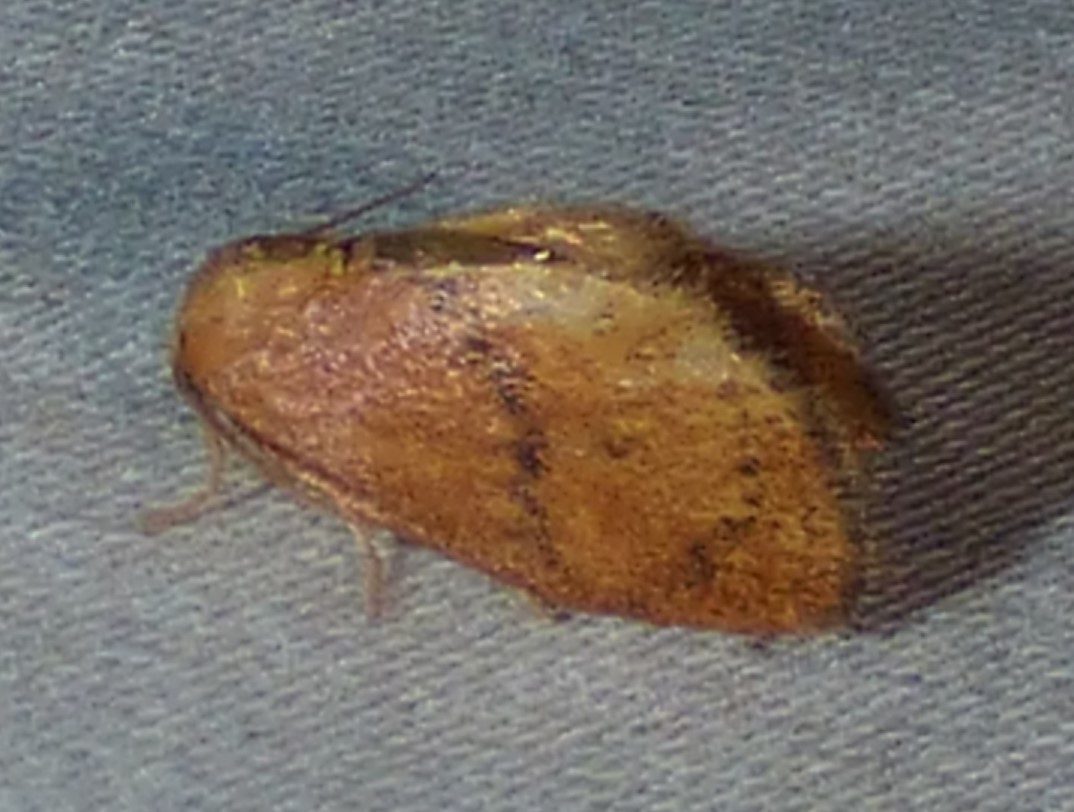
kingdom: Animalia
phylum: Arthropoda
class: Insecta
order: Lepidoptera
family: Limacodidae
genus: Heterogenea
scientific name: Heterogenea shurtleffi
